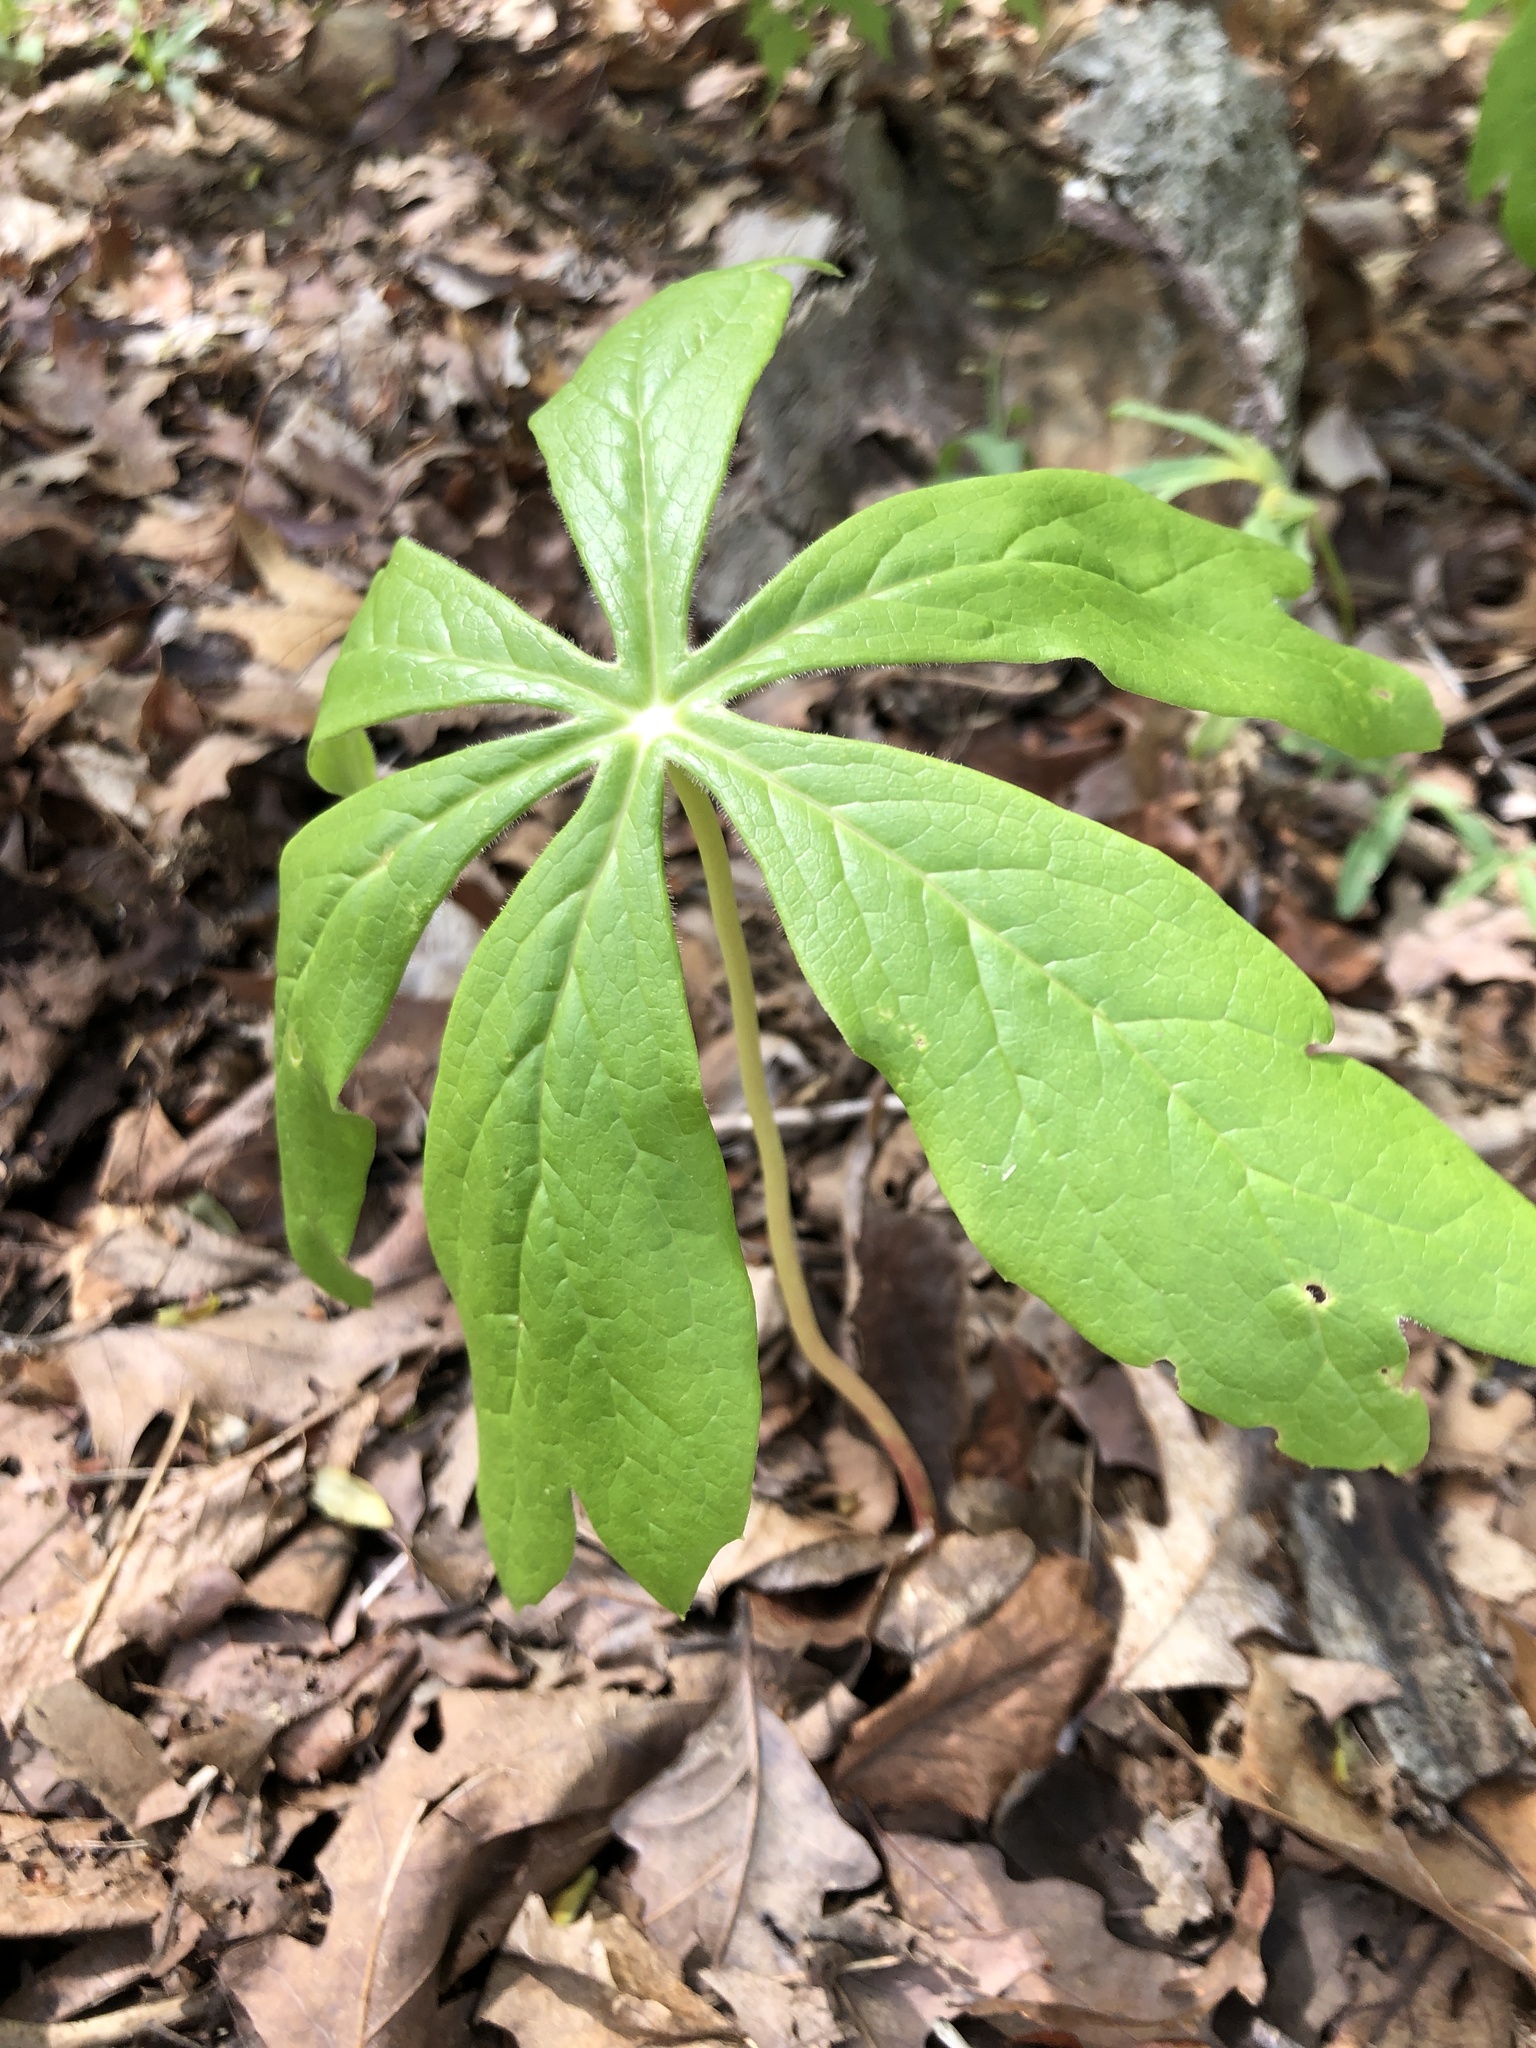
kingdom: Plantae
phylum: Tracheophyta
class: Magnoliopsida
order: Ranunculales
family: Berberidaceae
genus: Podophyllum
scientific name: Podophyllum peltatum
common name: Wild mandrake
